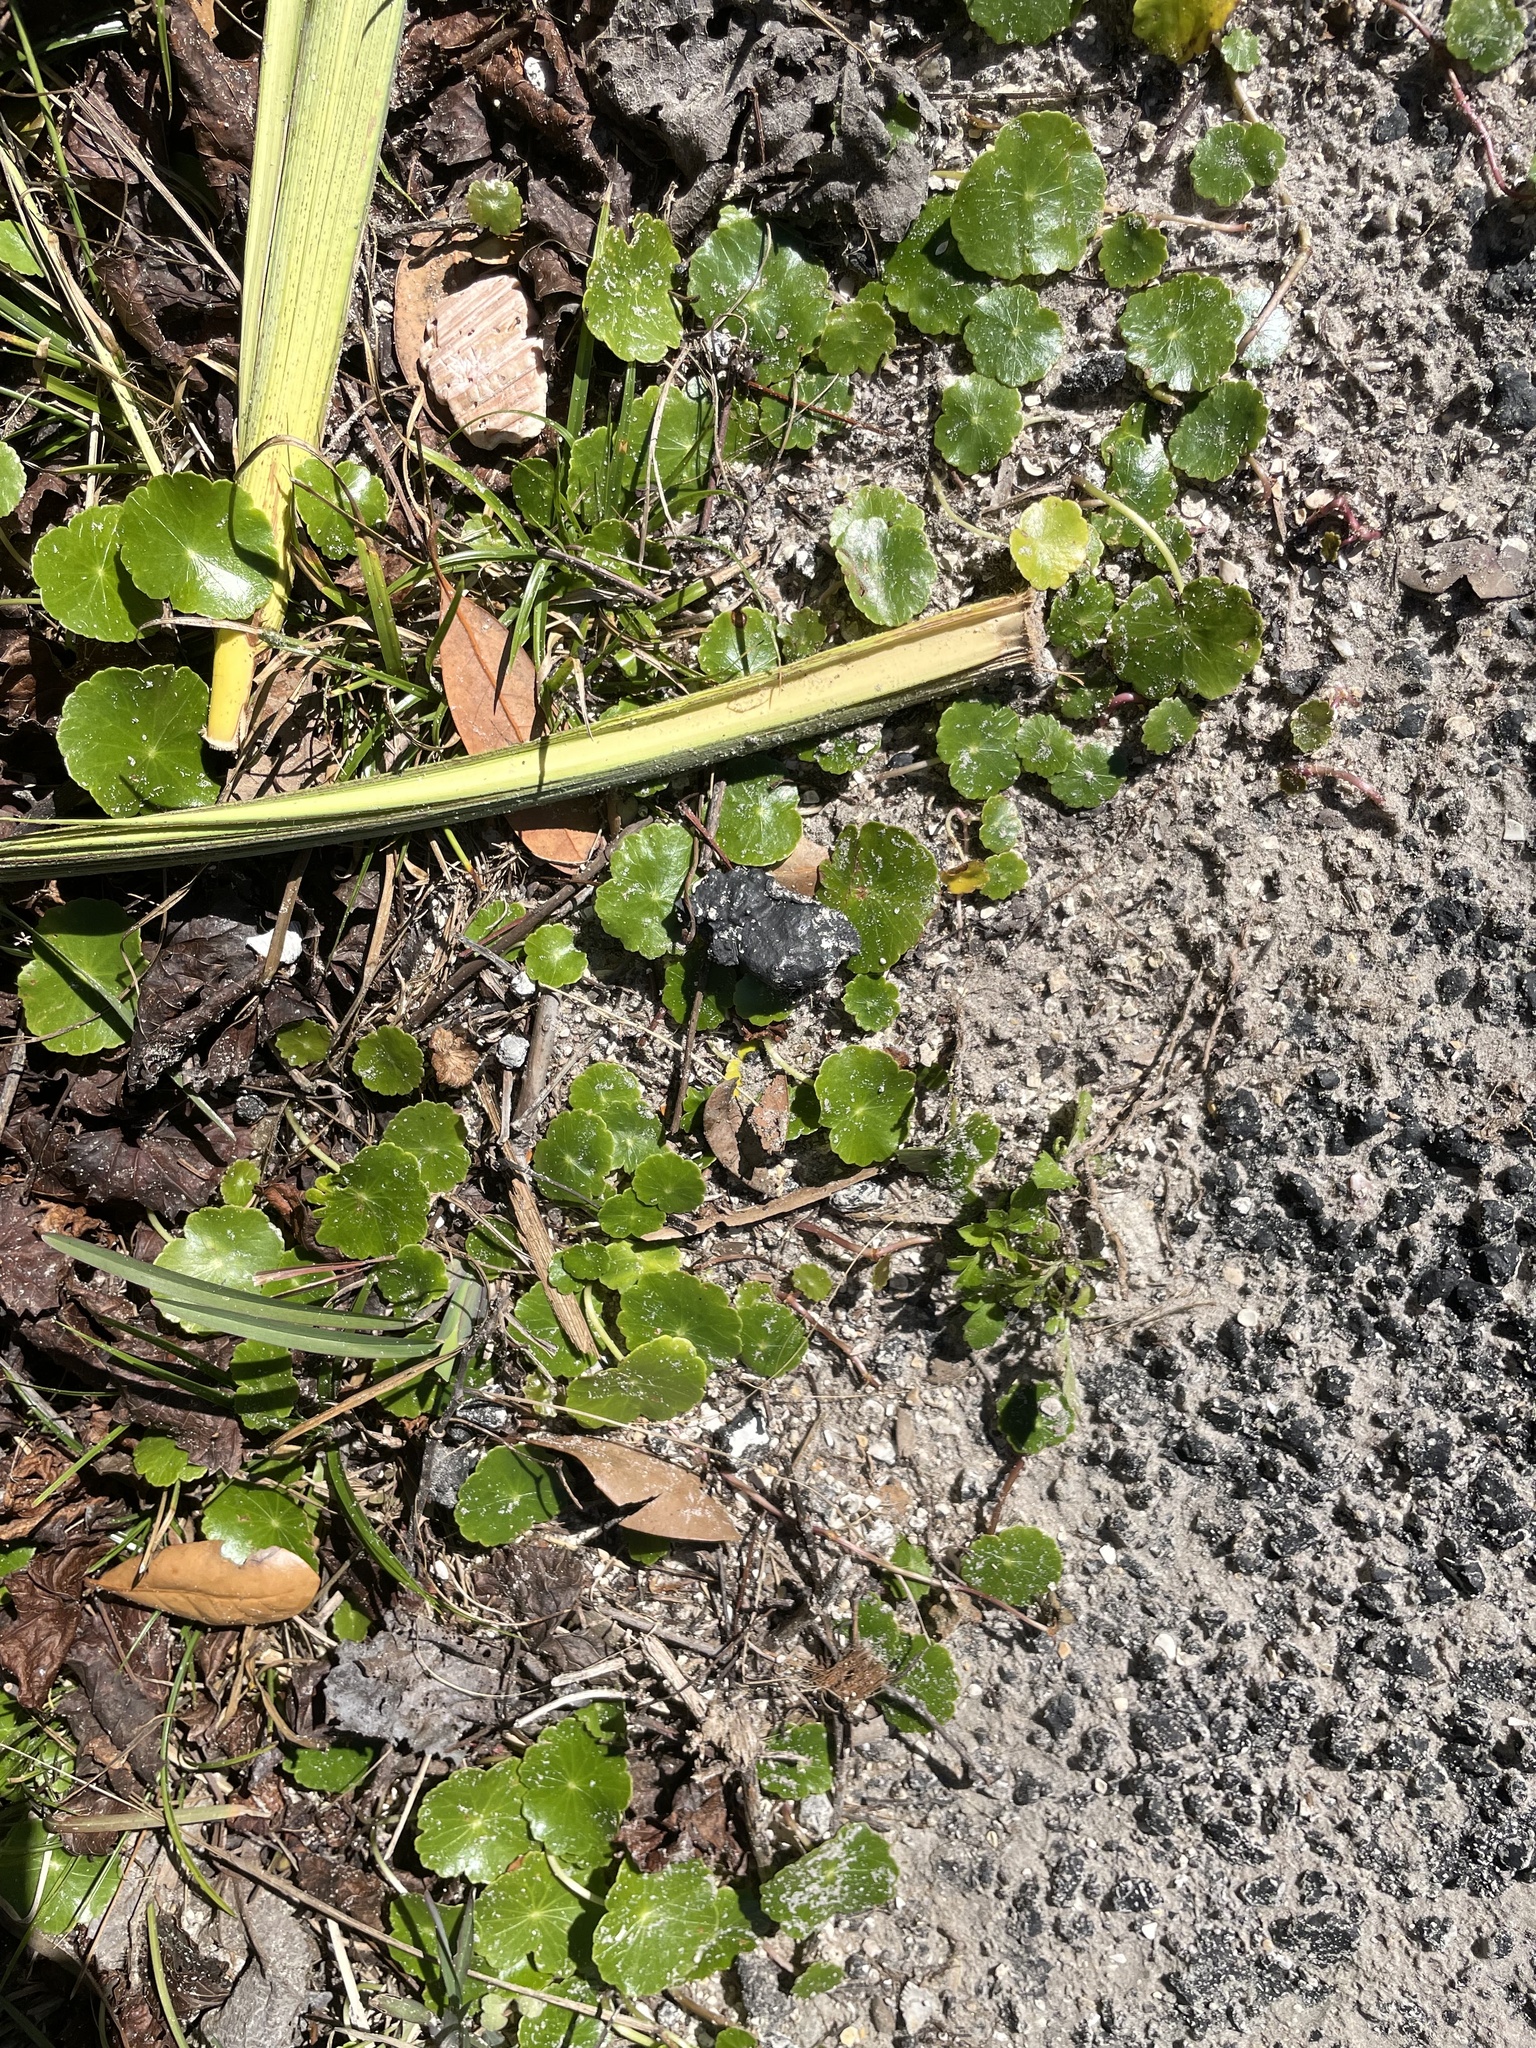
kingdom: Plantae
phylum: Tracheophyta
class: Magnoliopsida
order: Apiales
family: Araliaceae
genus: Hydrocotyle
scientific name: Hydrocotyle umbellata
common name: Water pennywort
